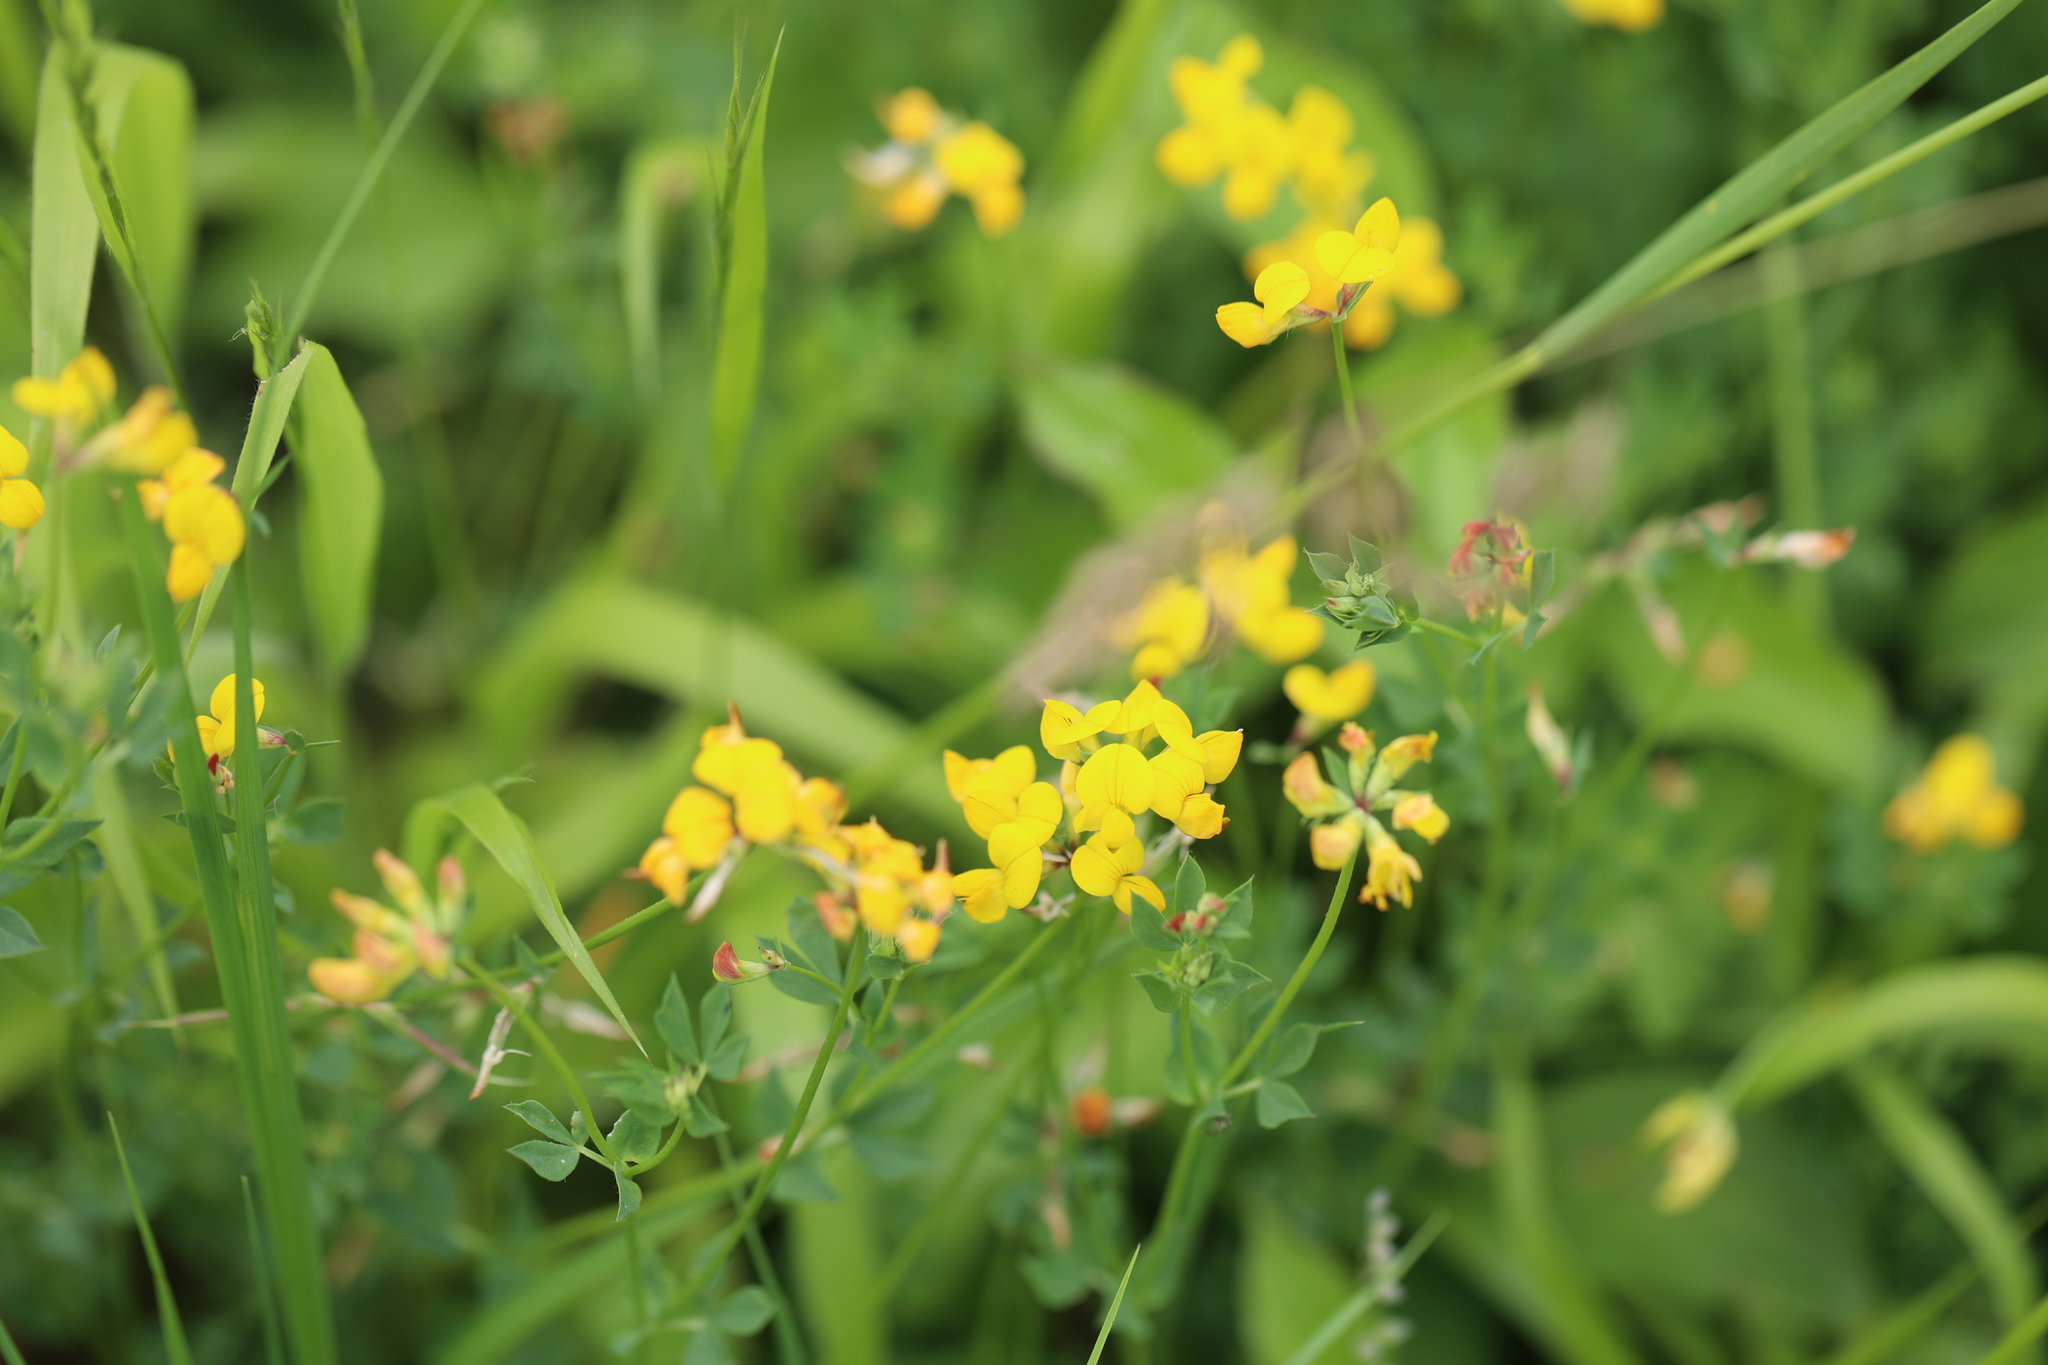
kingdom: Plantae
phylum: Tracheophyta
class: Magnoliopsida
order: Fabales
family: Fabaceae
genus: Lotus
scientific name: Lotus corniculatus
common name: Common bird's-foot-trefoil
